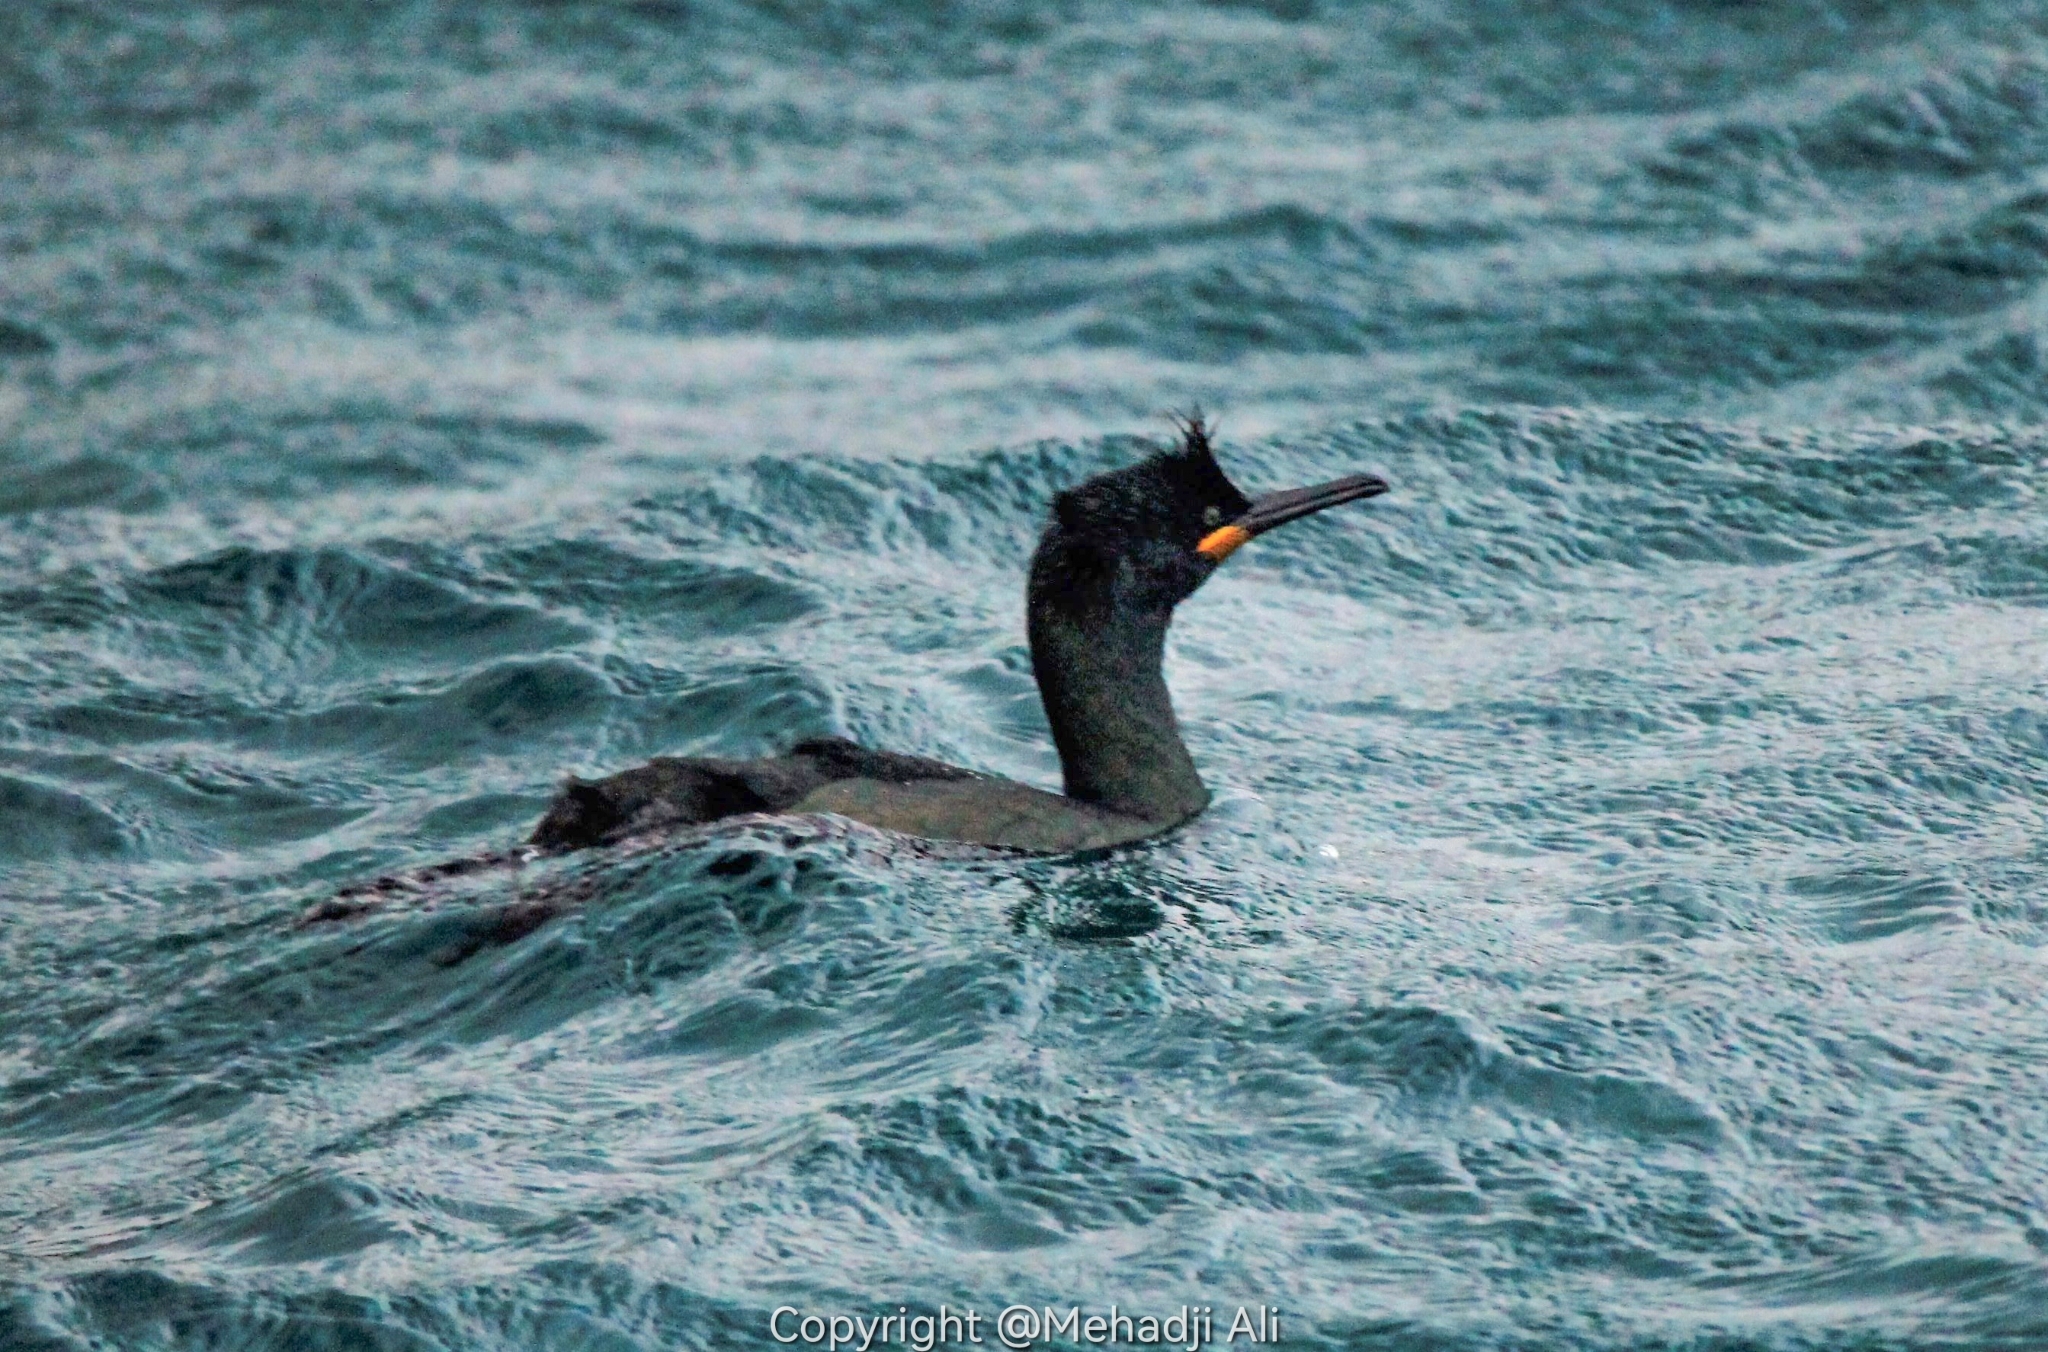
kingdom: Animalia
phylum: Chordata
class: Aves
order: Suliformes
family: Phalacrocoracidae
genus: Phalacrocorax
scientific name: Phalacrocorax aristotelis
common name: European shag
